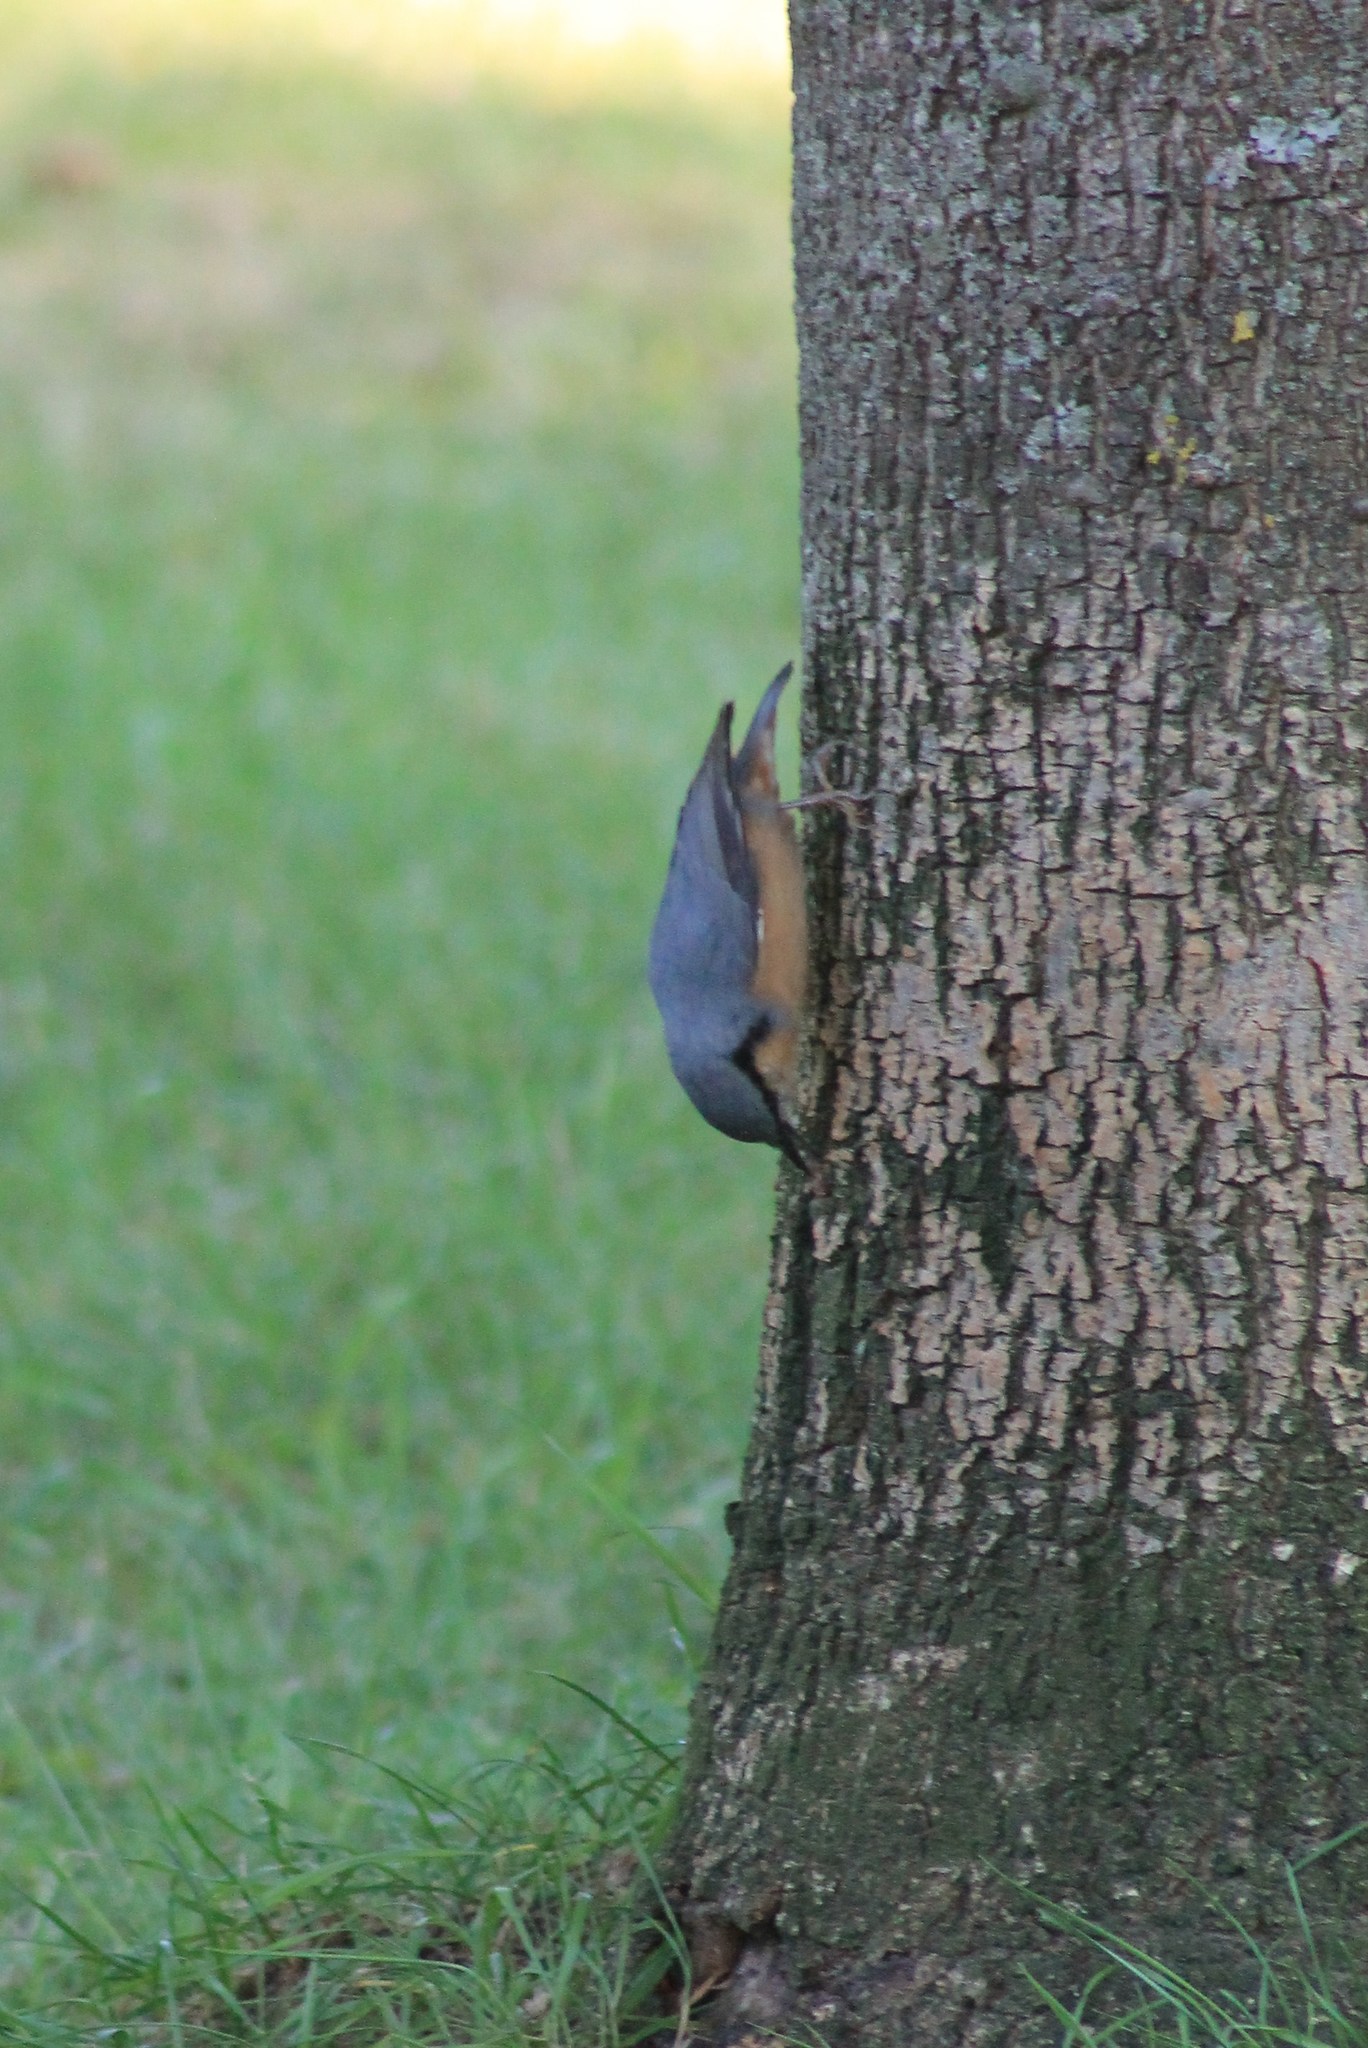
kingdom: Animalia
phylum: Chordata
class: Aves
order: Passeriformes
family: Sittidae
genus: Sitta
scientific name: Sitta europaea
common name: Eurasian nuthatch
